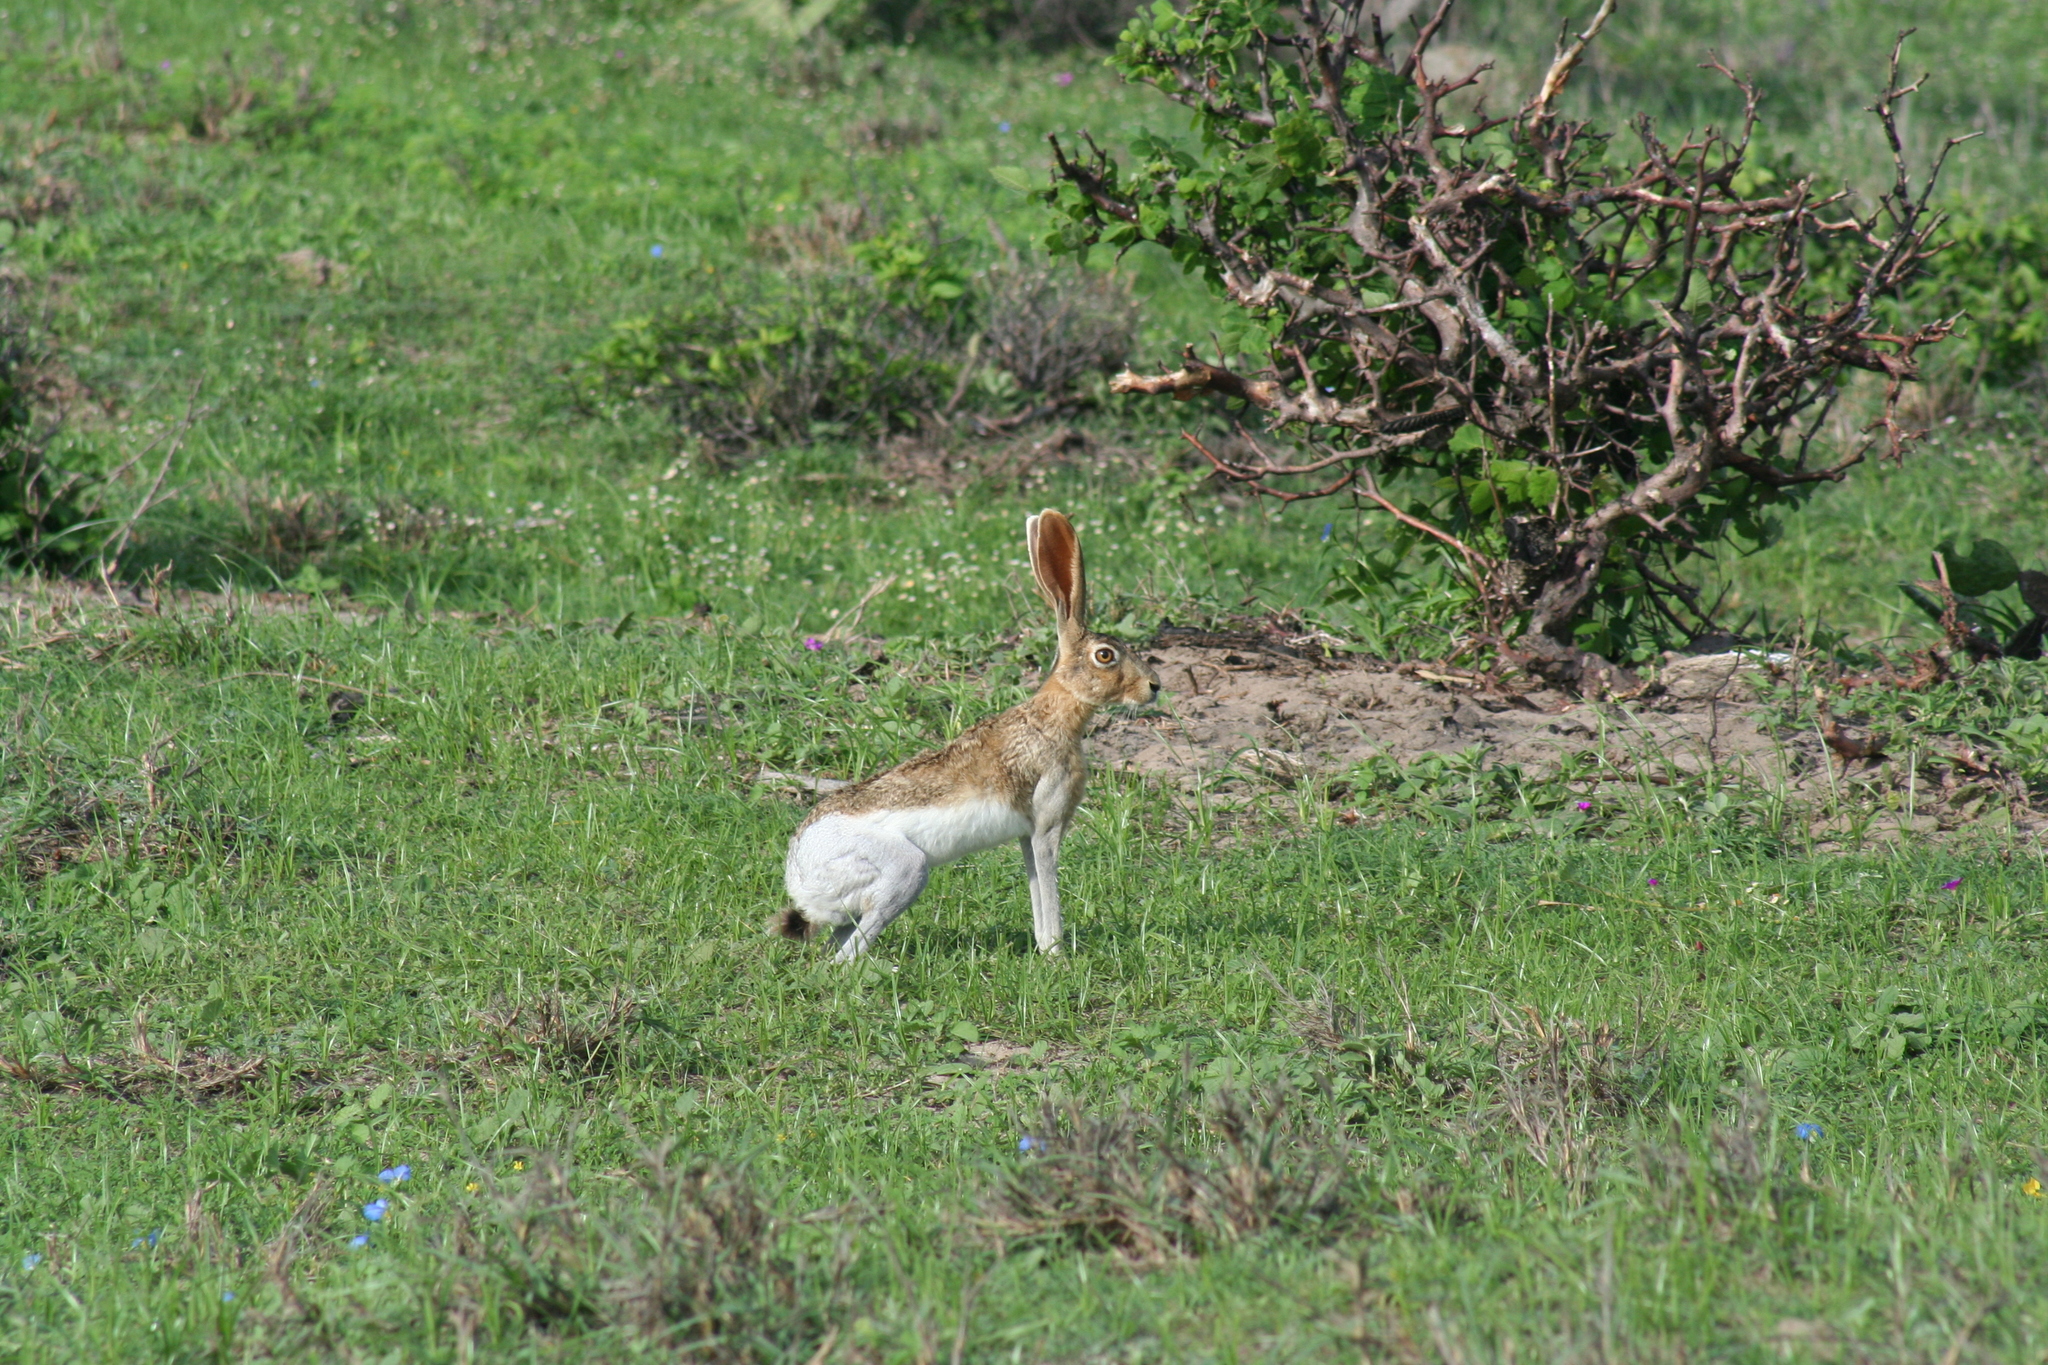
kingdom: Animalia
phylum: Chordata
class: Mammalia
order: Lagomorpha
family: Leporidae
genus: Lepus
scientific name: Lepus flavigularis
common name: Tehuantepec jackrabbit
